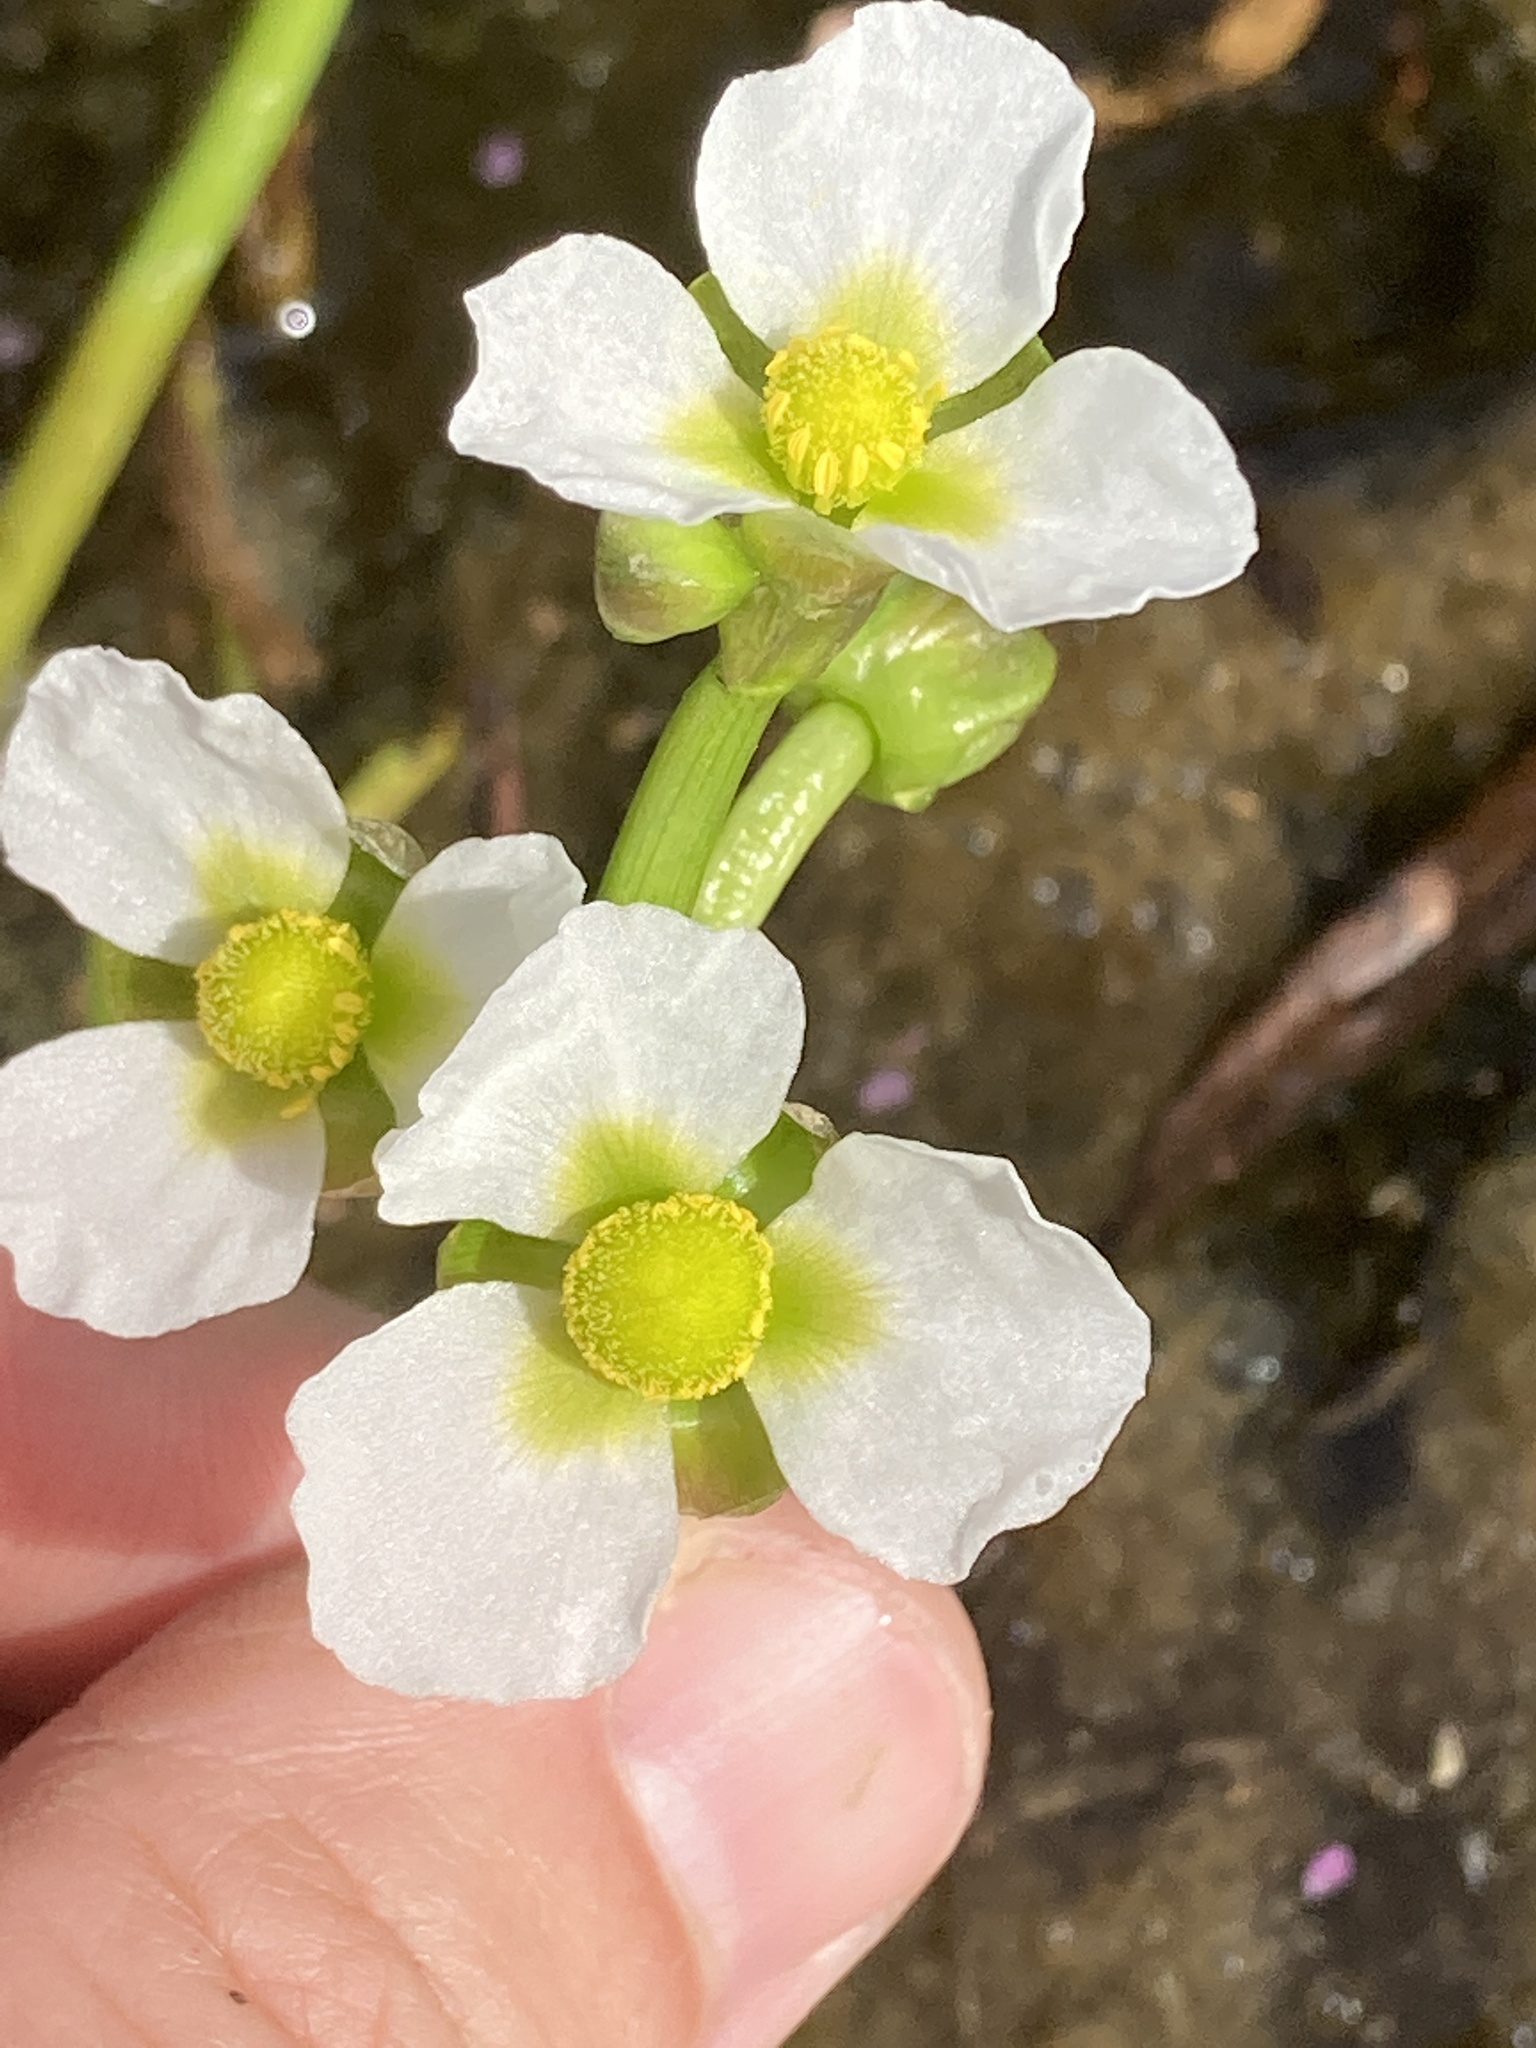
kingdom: Plantae
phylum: Tracheophyta
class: Liliopsida
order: Alismatales
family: Alismataceae
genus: Sagittaria
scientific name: Sagittaria calycina
